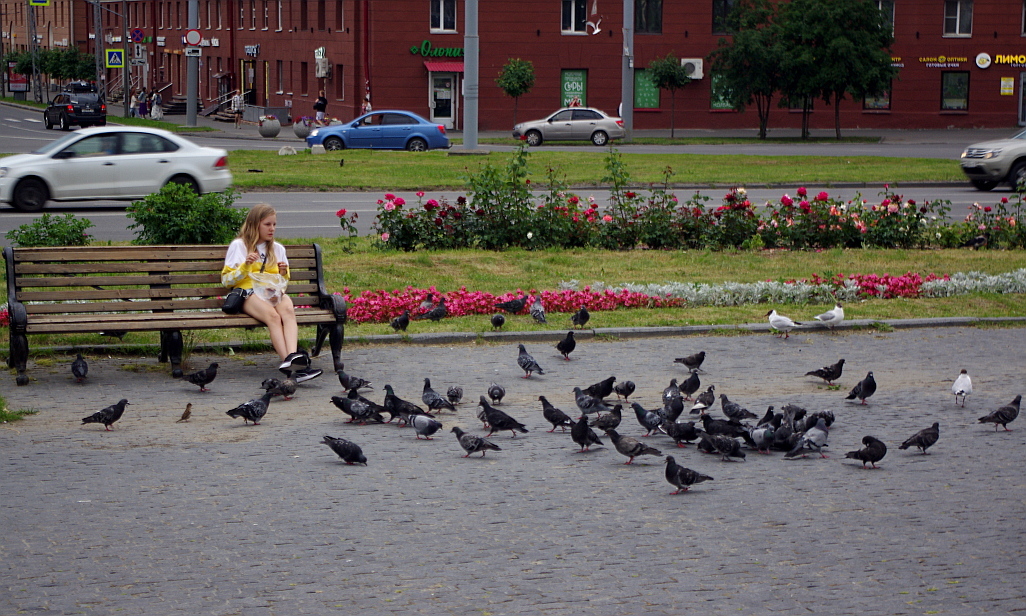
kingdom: Animalia
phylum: Chordata
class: Aves
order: Charadriiformes
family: Laridae
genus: Chroicocephalus
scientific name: Chroicocephalus ridibundus
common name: Black-headed gull
